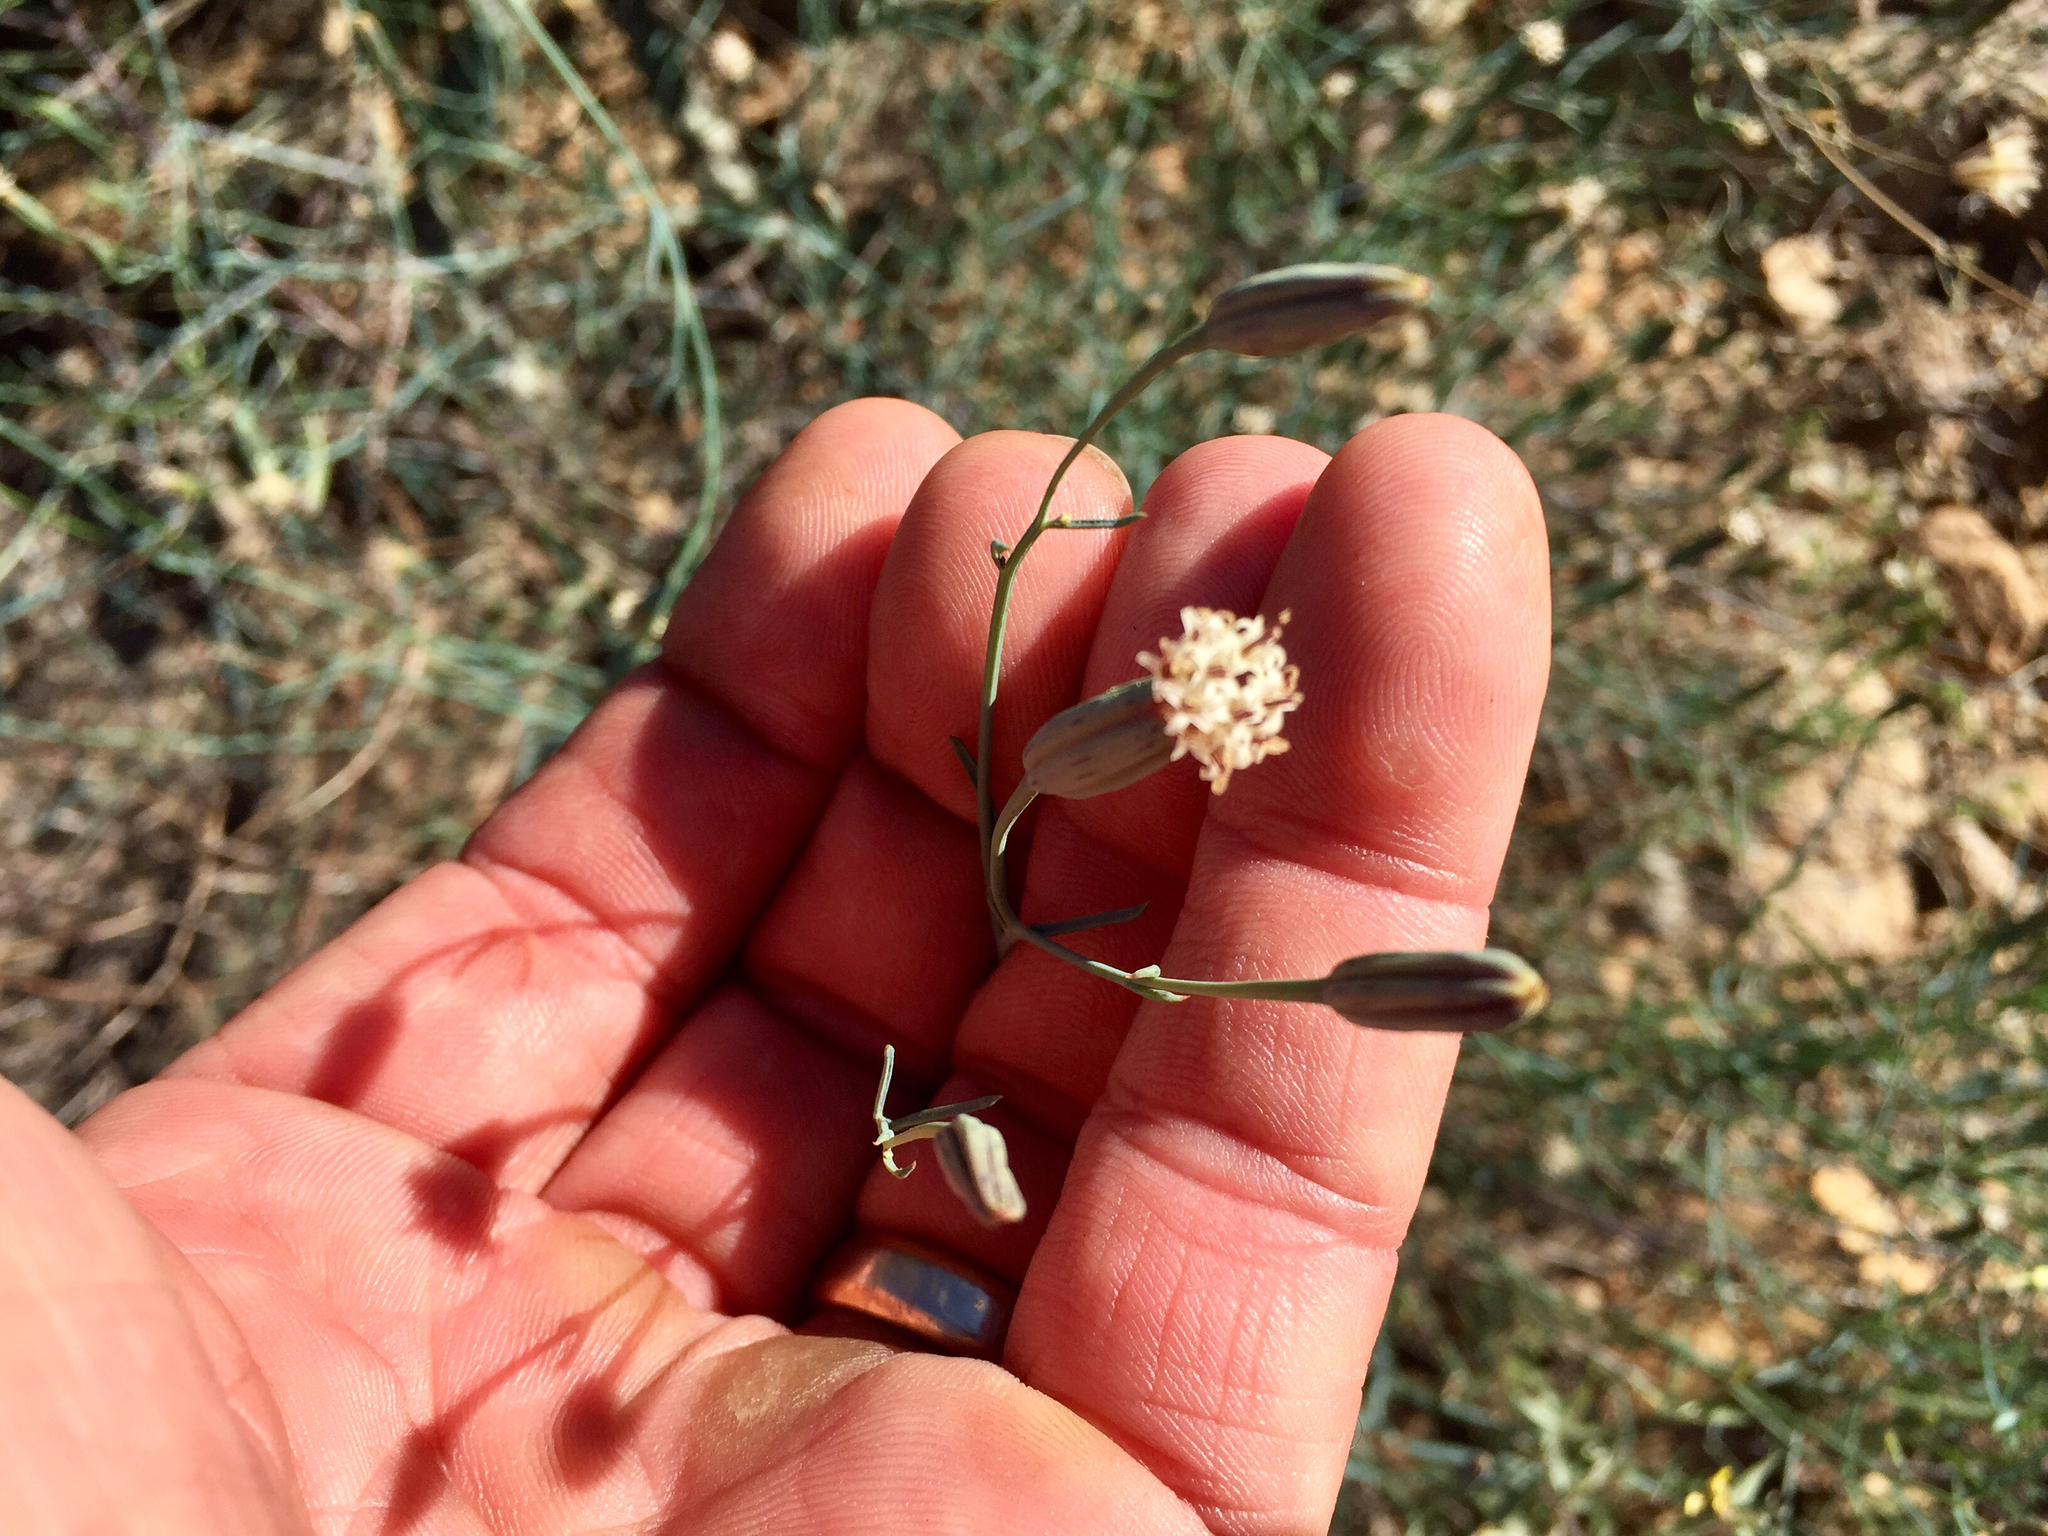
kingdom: Plantae
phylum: Tracheophyta
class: Magnoliopsida
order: Asterales
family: Asteraceae
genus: Porophyllum
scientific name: Porophyllum gracile
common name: Odora
